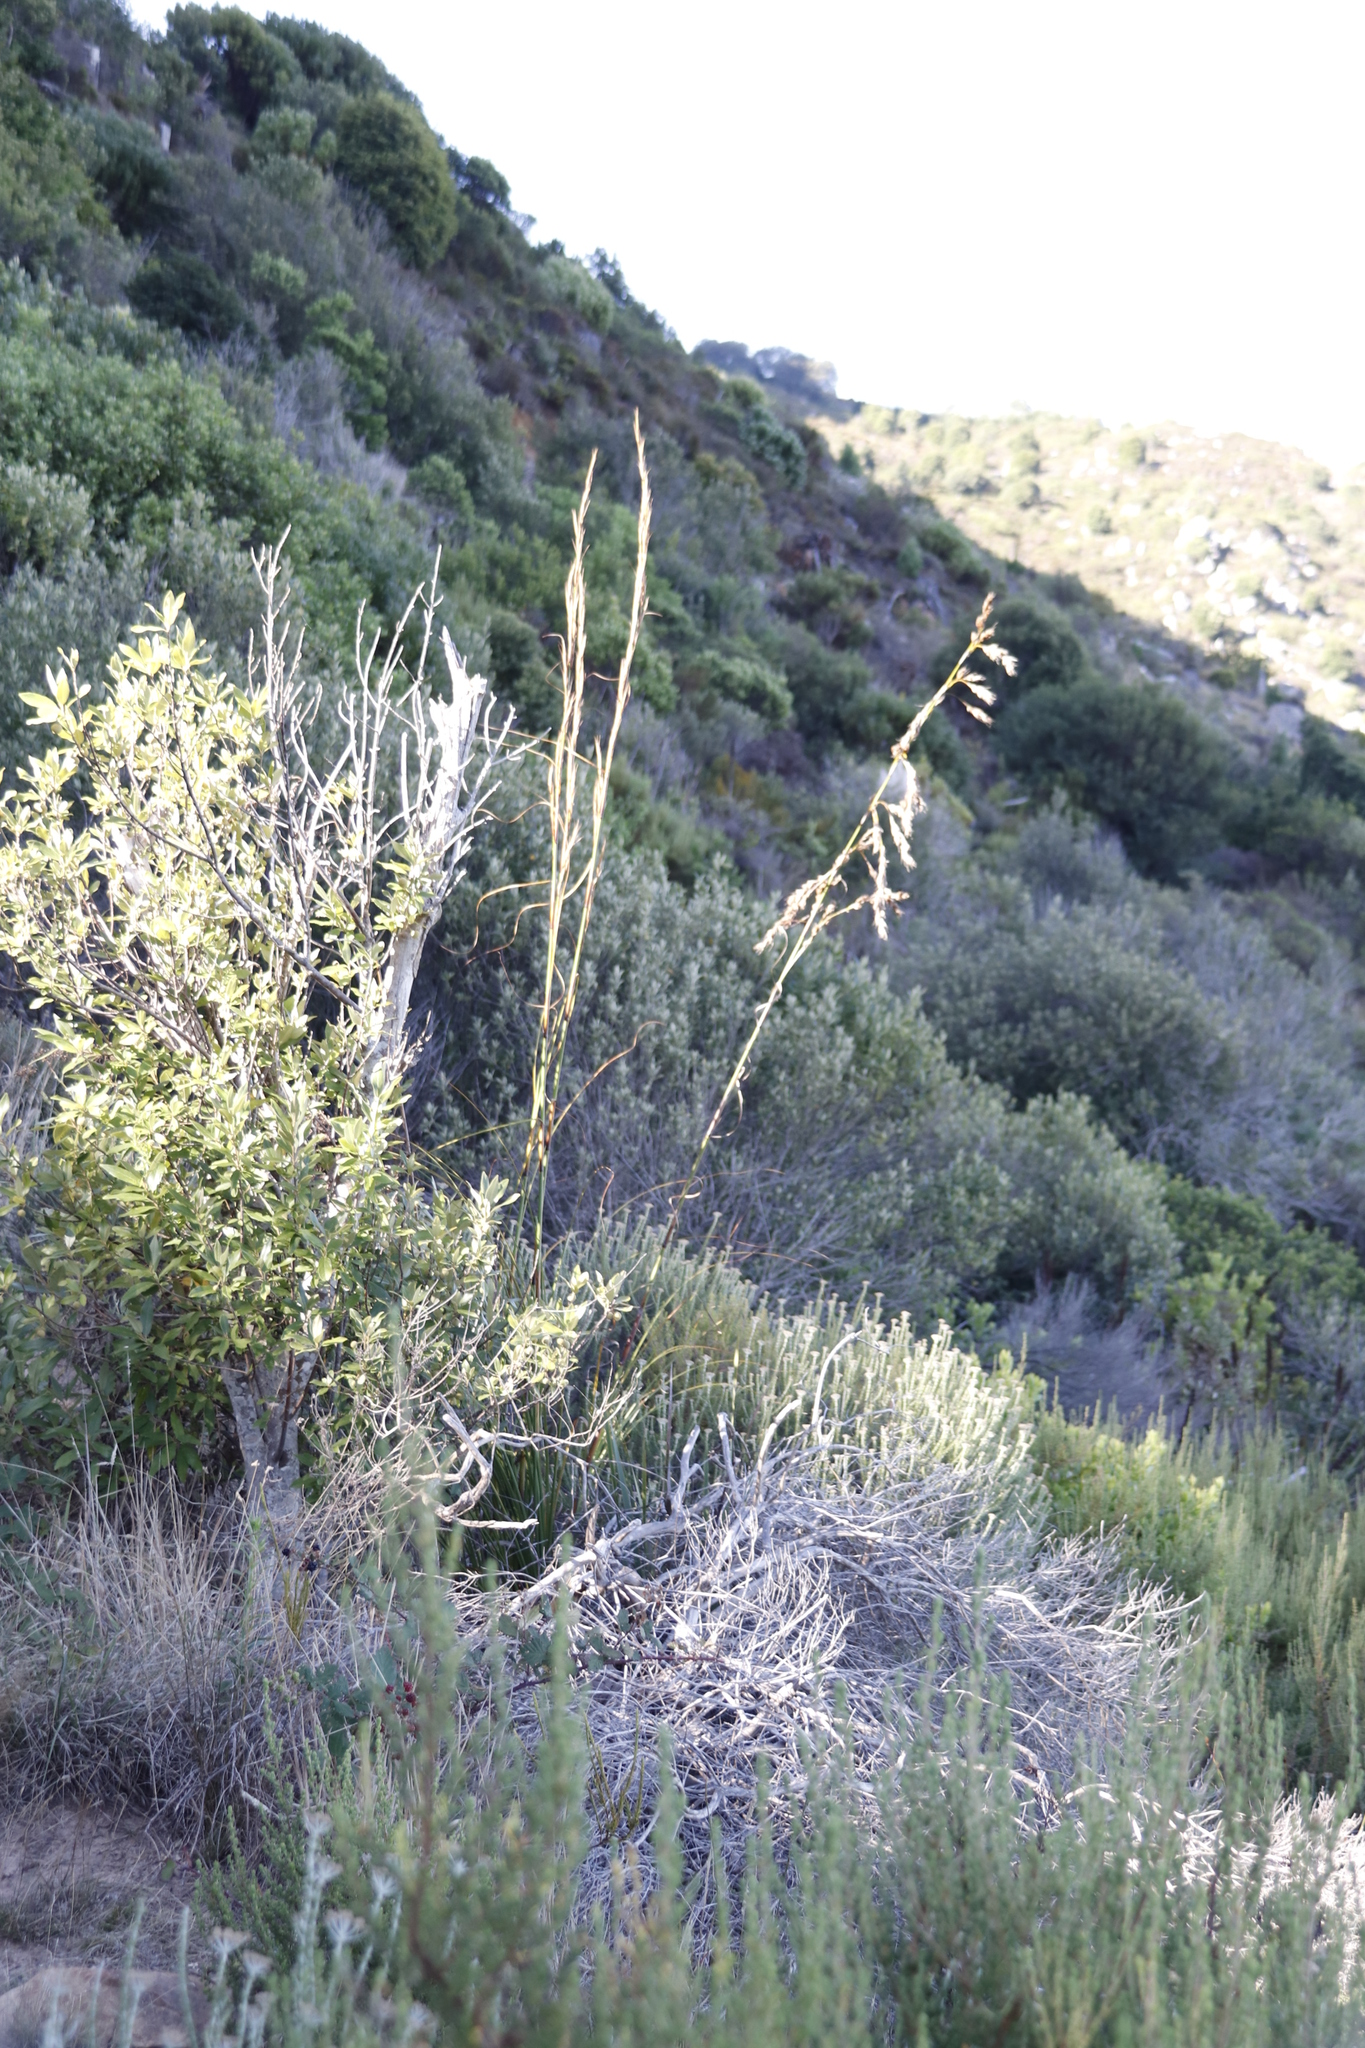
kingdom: Plantae
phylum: Tracheophyta
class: Liliopsida
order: Poales
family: Cyperaceae
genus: Tetraria
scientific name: Tetraria involucrata
